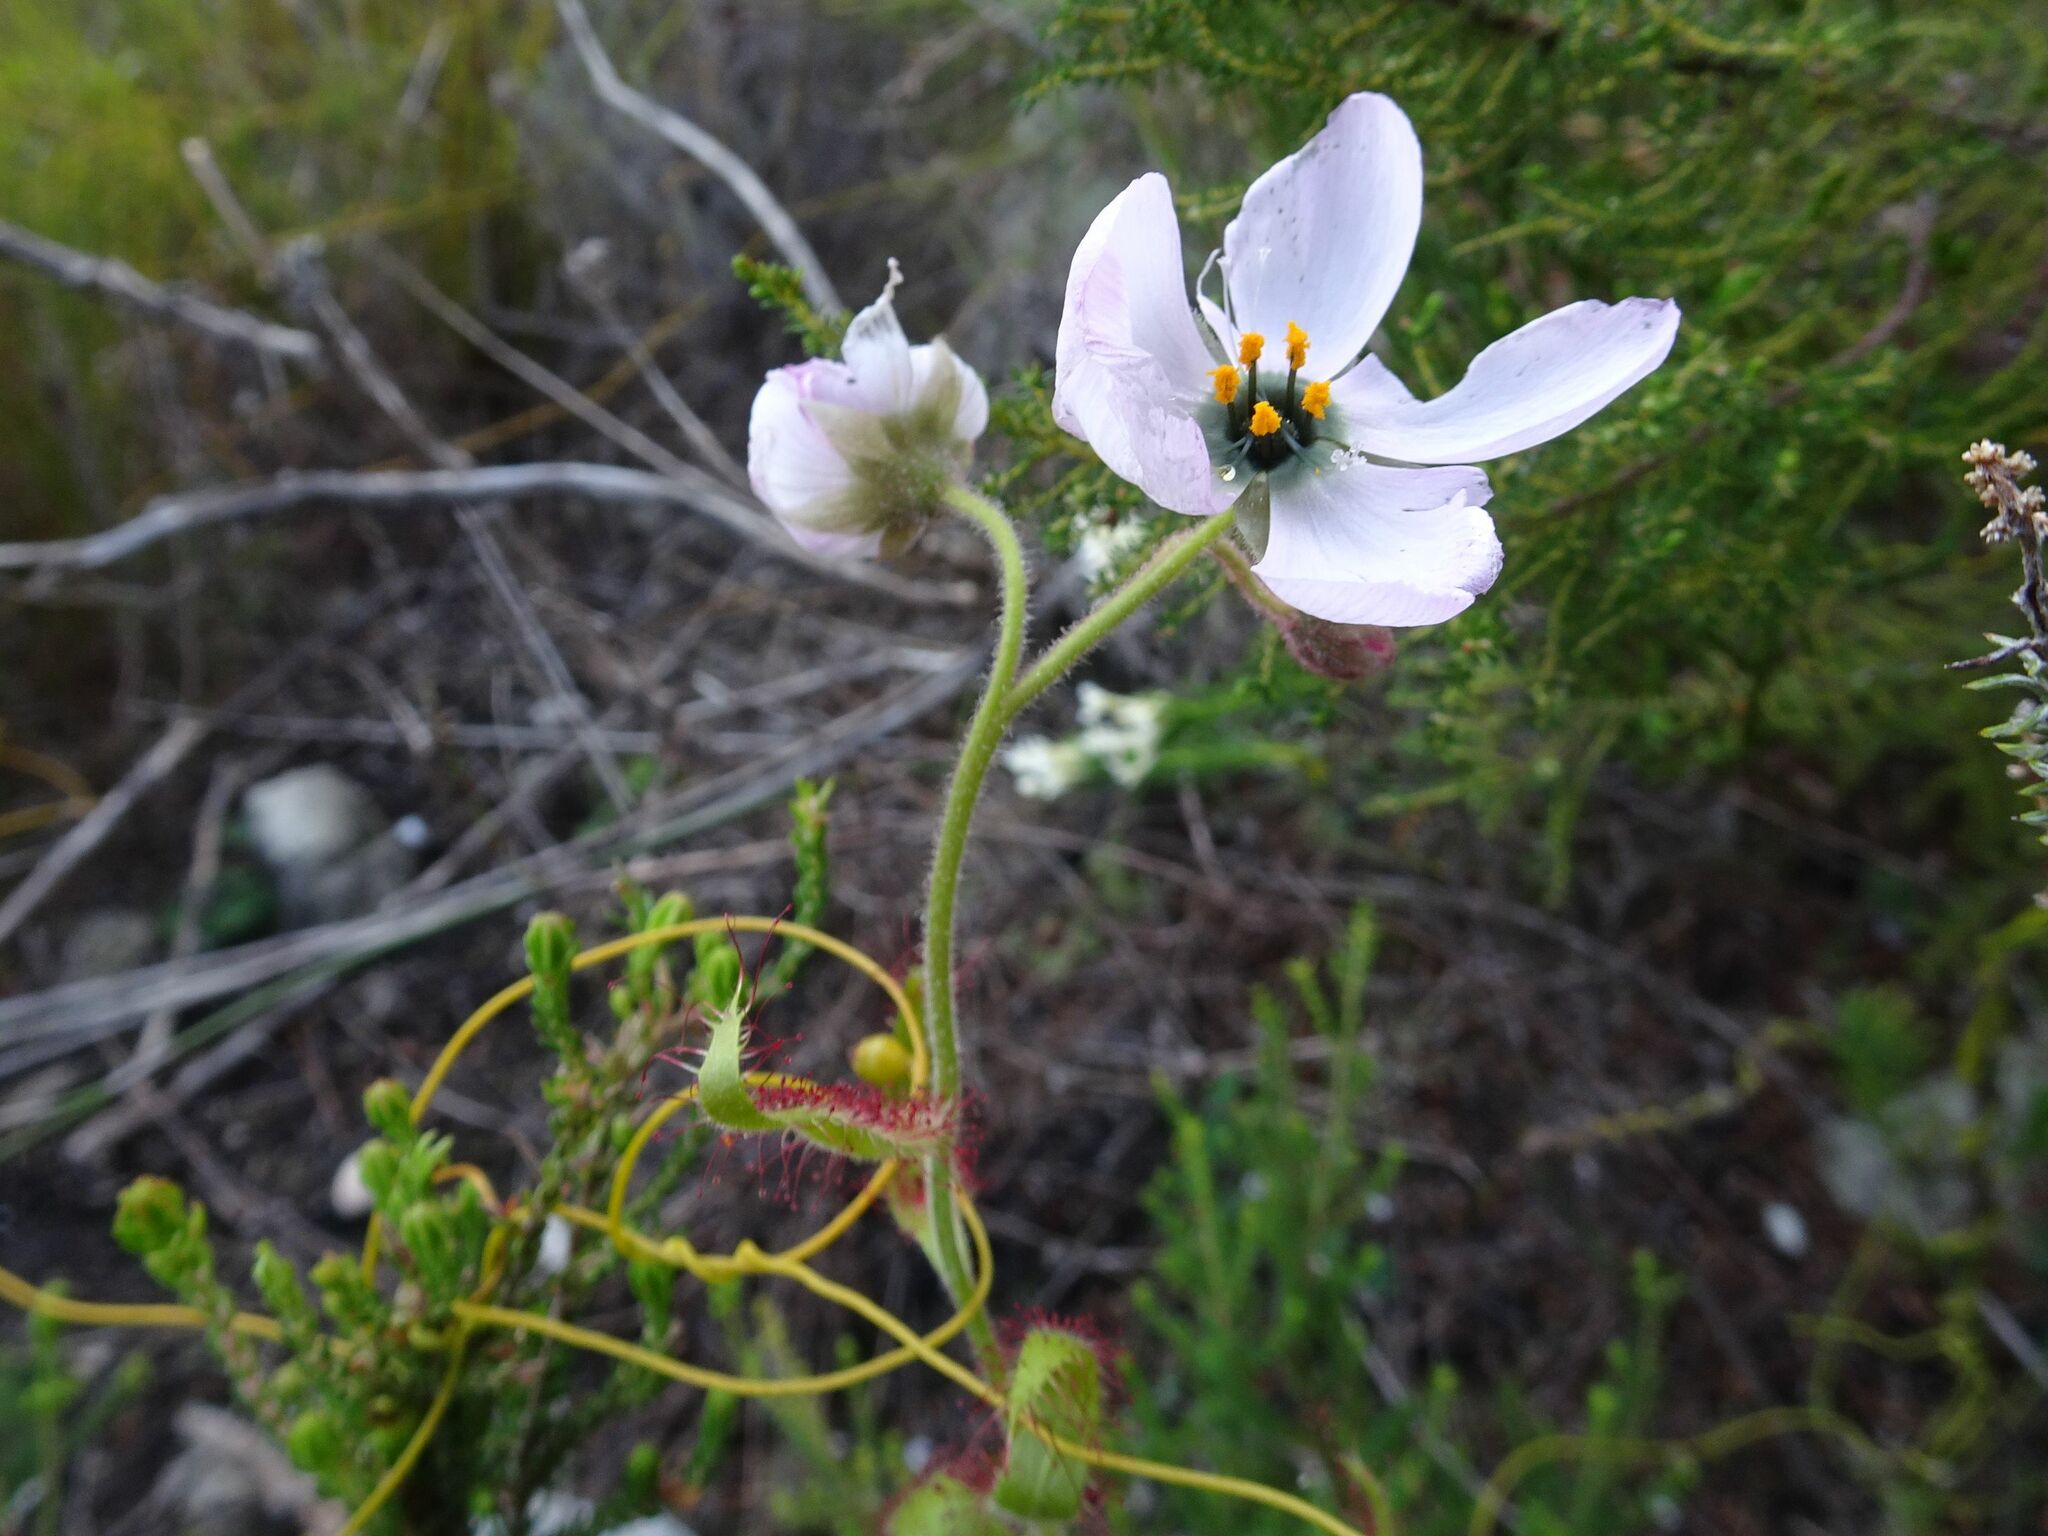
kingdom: Plantae
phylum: Tracheophyta
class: Magnoliopsida
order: Caryophyllales
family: Droseraceae
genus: Drosera
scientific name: Drosera cistiflora
